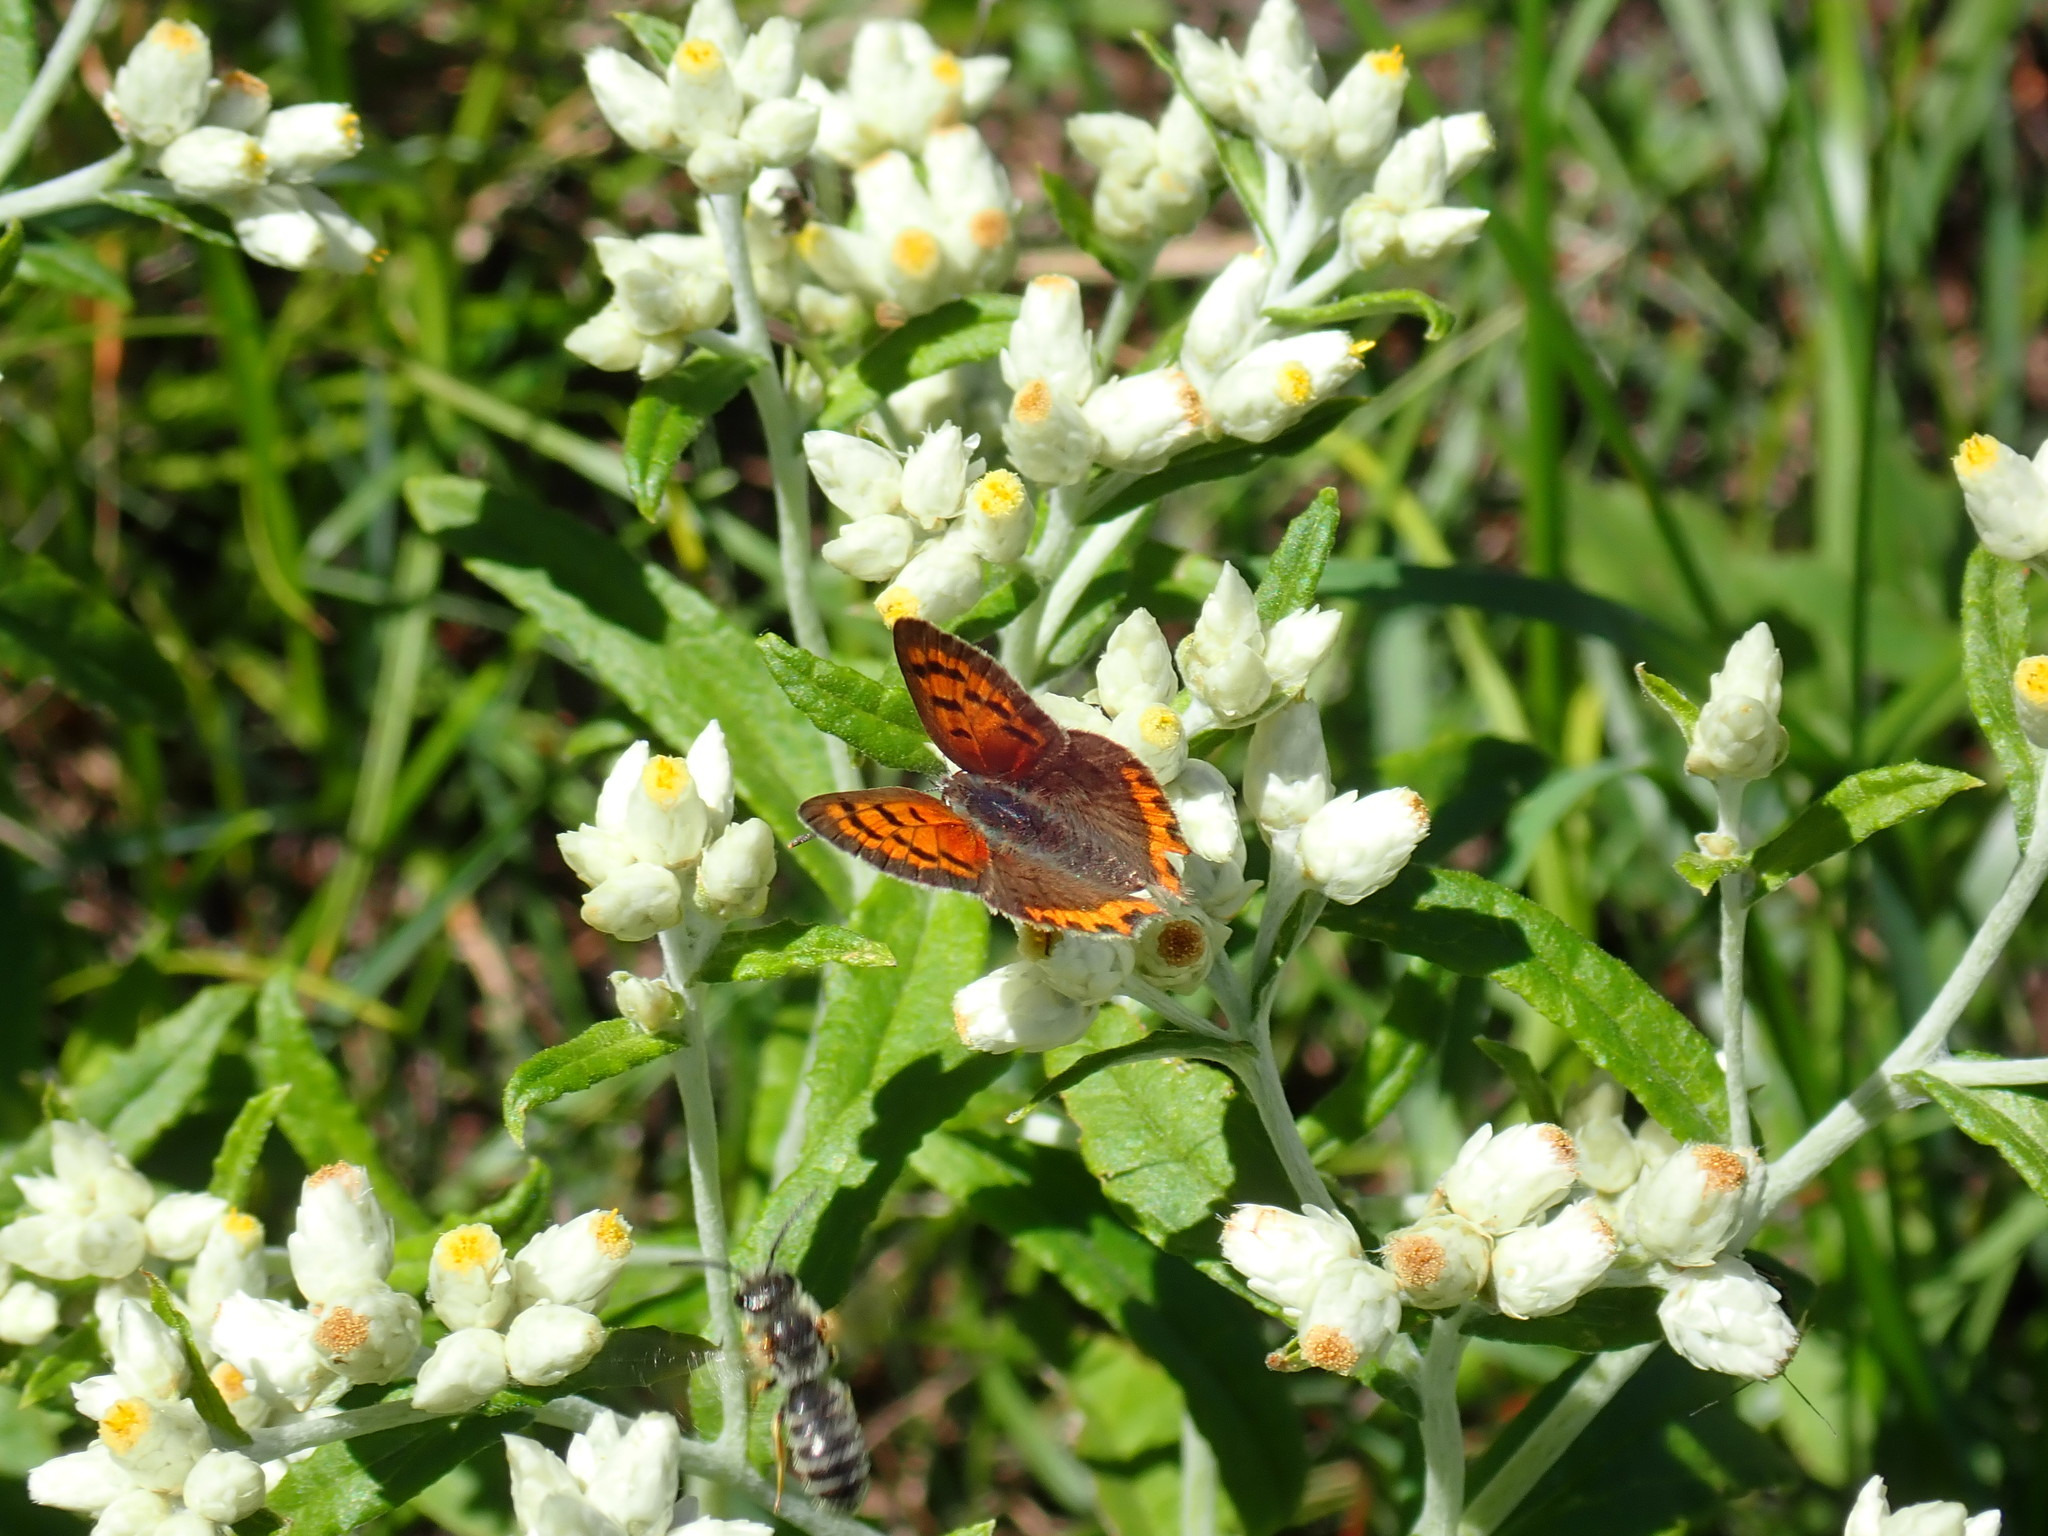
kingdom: Animalia
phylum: Arthropoda
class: Insecta
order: Lepidoptera
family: Lycaenidae
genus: Lycaena
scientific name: Lycaena hypophlaeas
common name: American copper
